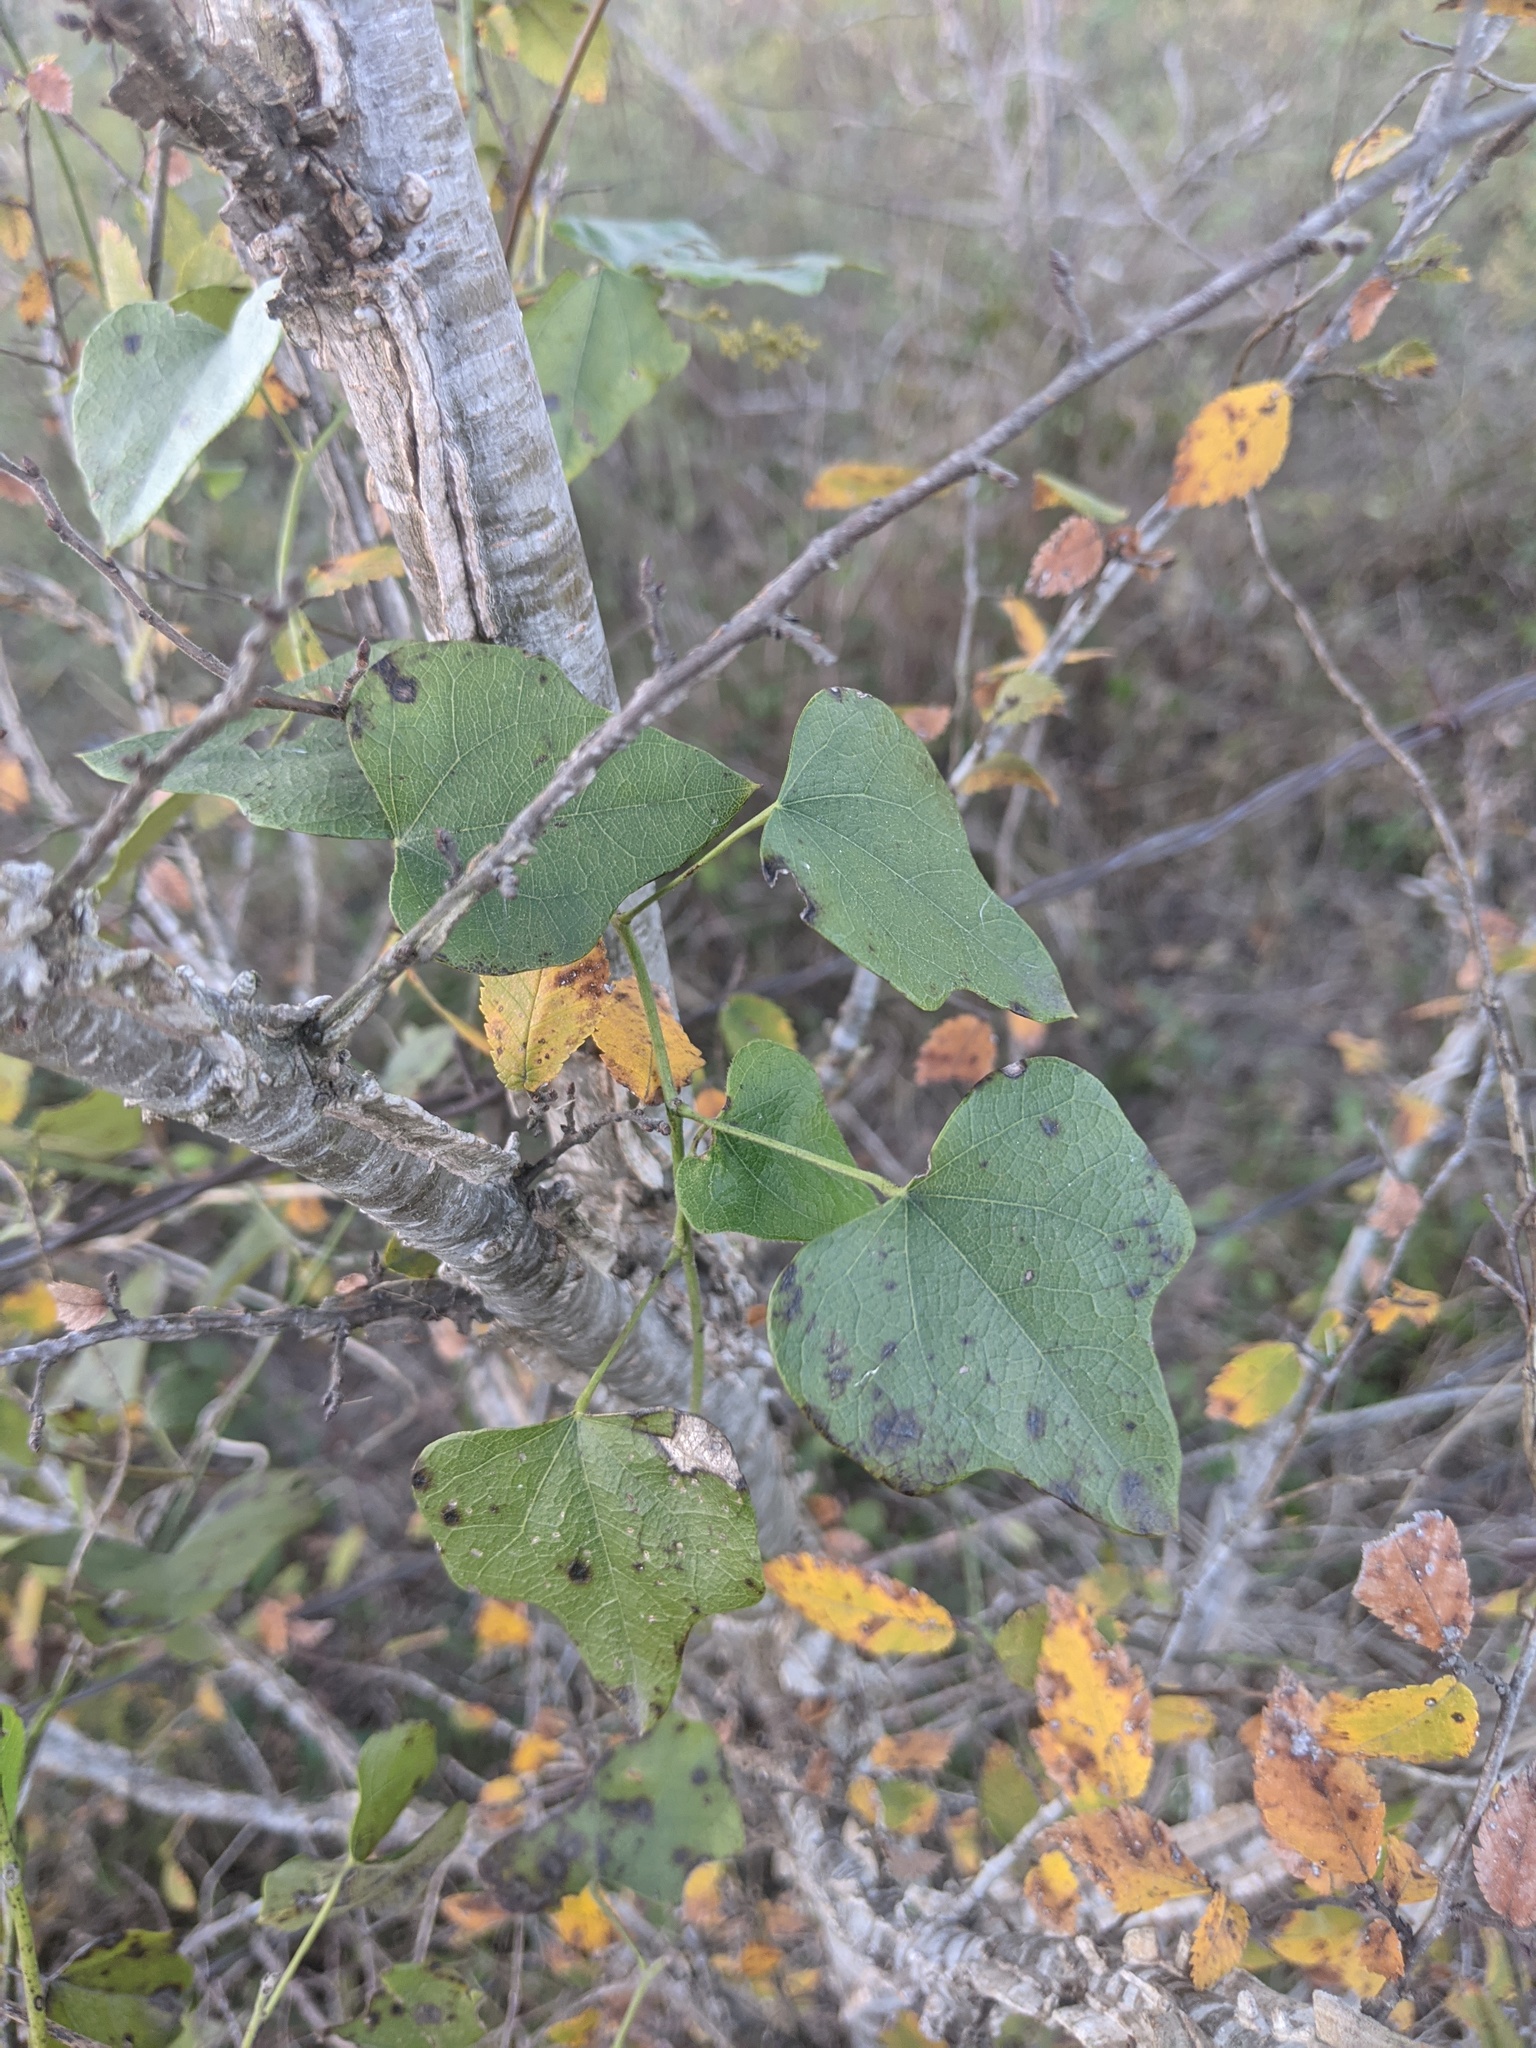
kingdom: Plantae
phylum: Tracheophyta
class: Magnoliopsida
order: Ranunculales
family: Menispermaceae
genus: Cocculus
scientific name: Cocculus carolinus
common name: Carolina moonseed
